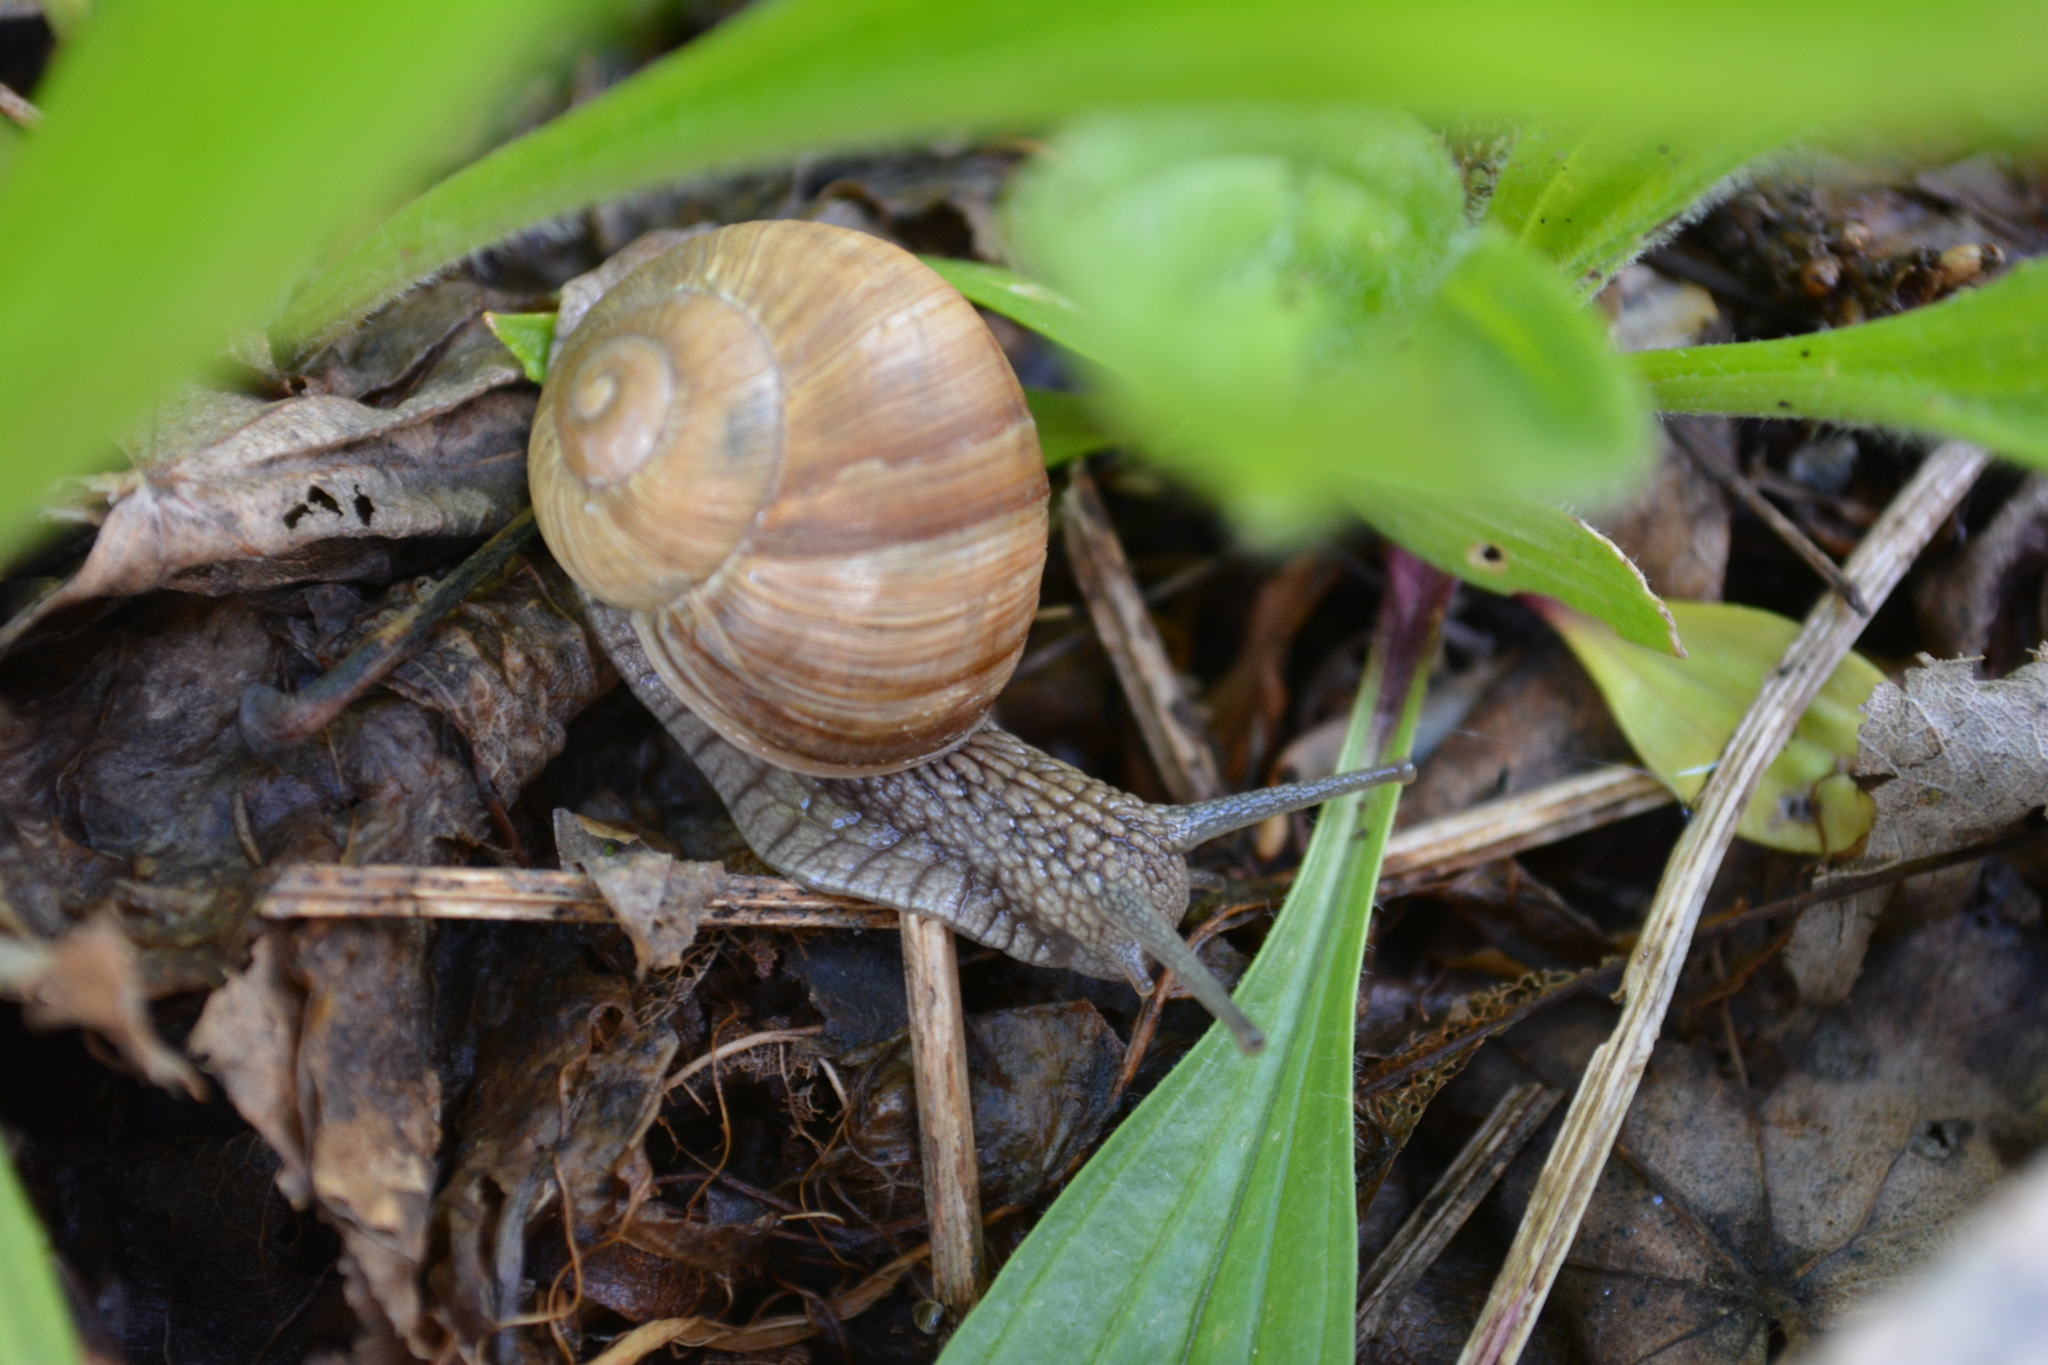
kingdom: Animalia
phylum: Mollusca
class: Gastropoda
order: Stylommatophora
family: Helicidae
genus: Helix
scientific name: Helix pomatia
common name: Roman snail
